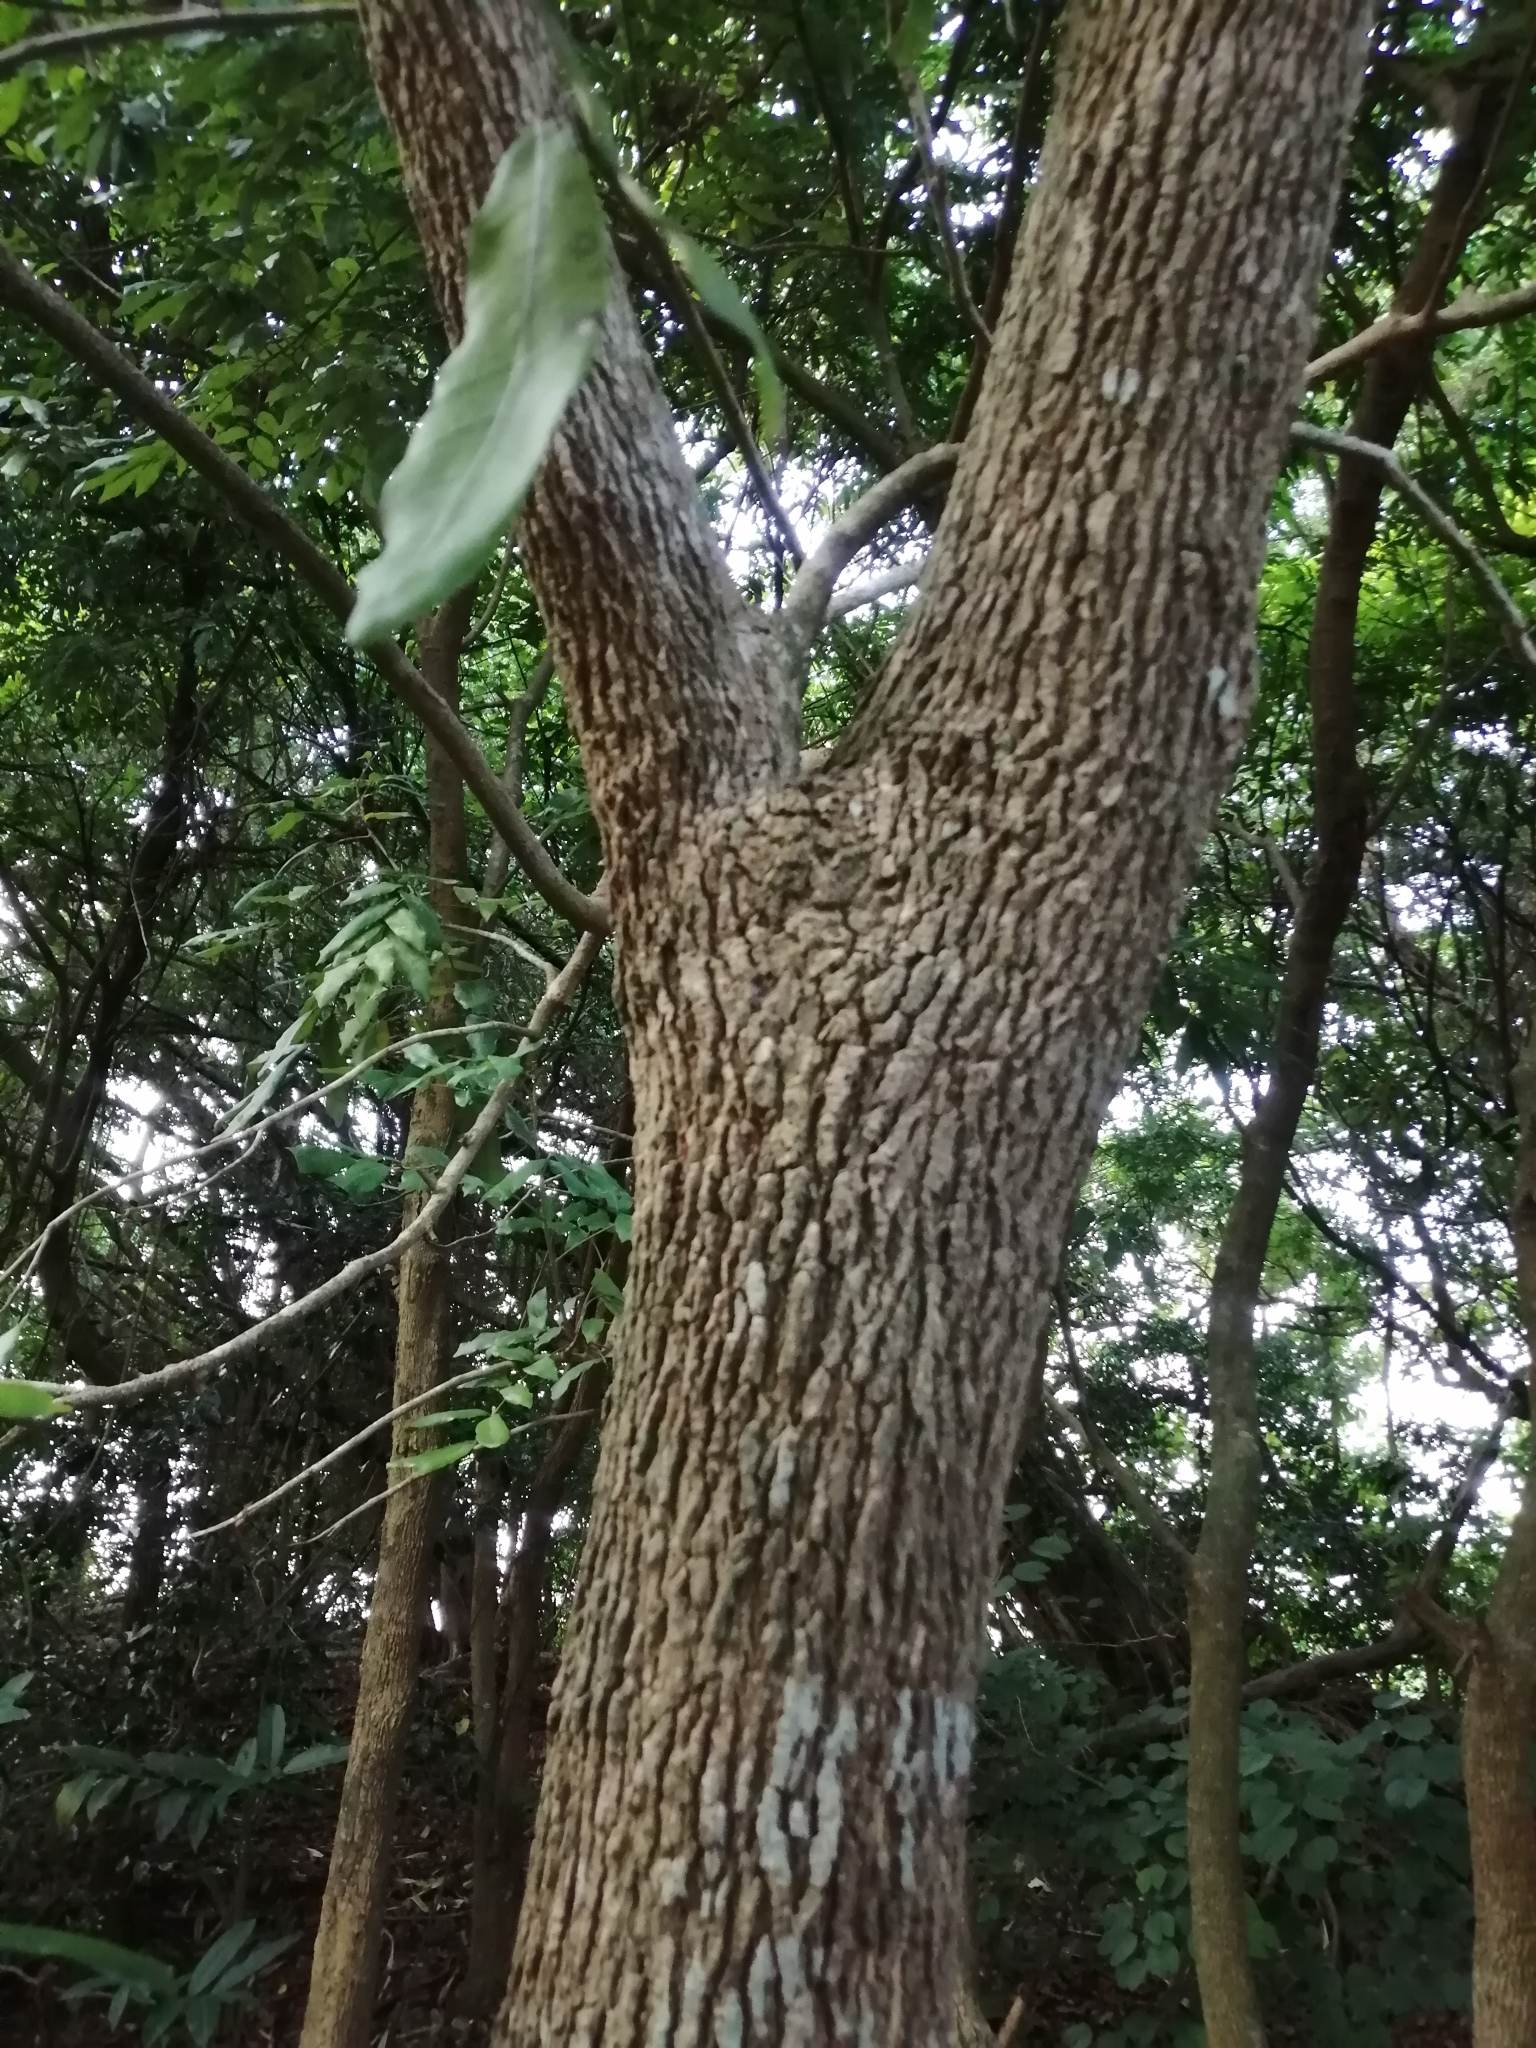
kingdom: Plantae
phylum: Tracheophyta
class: Magnoliopsida
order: Sapindales
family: Sapindaceae
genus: Dimocarpus
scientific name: Dimocarpus longan
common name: Longan
